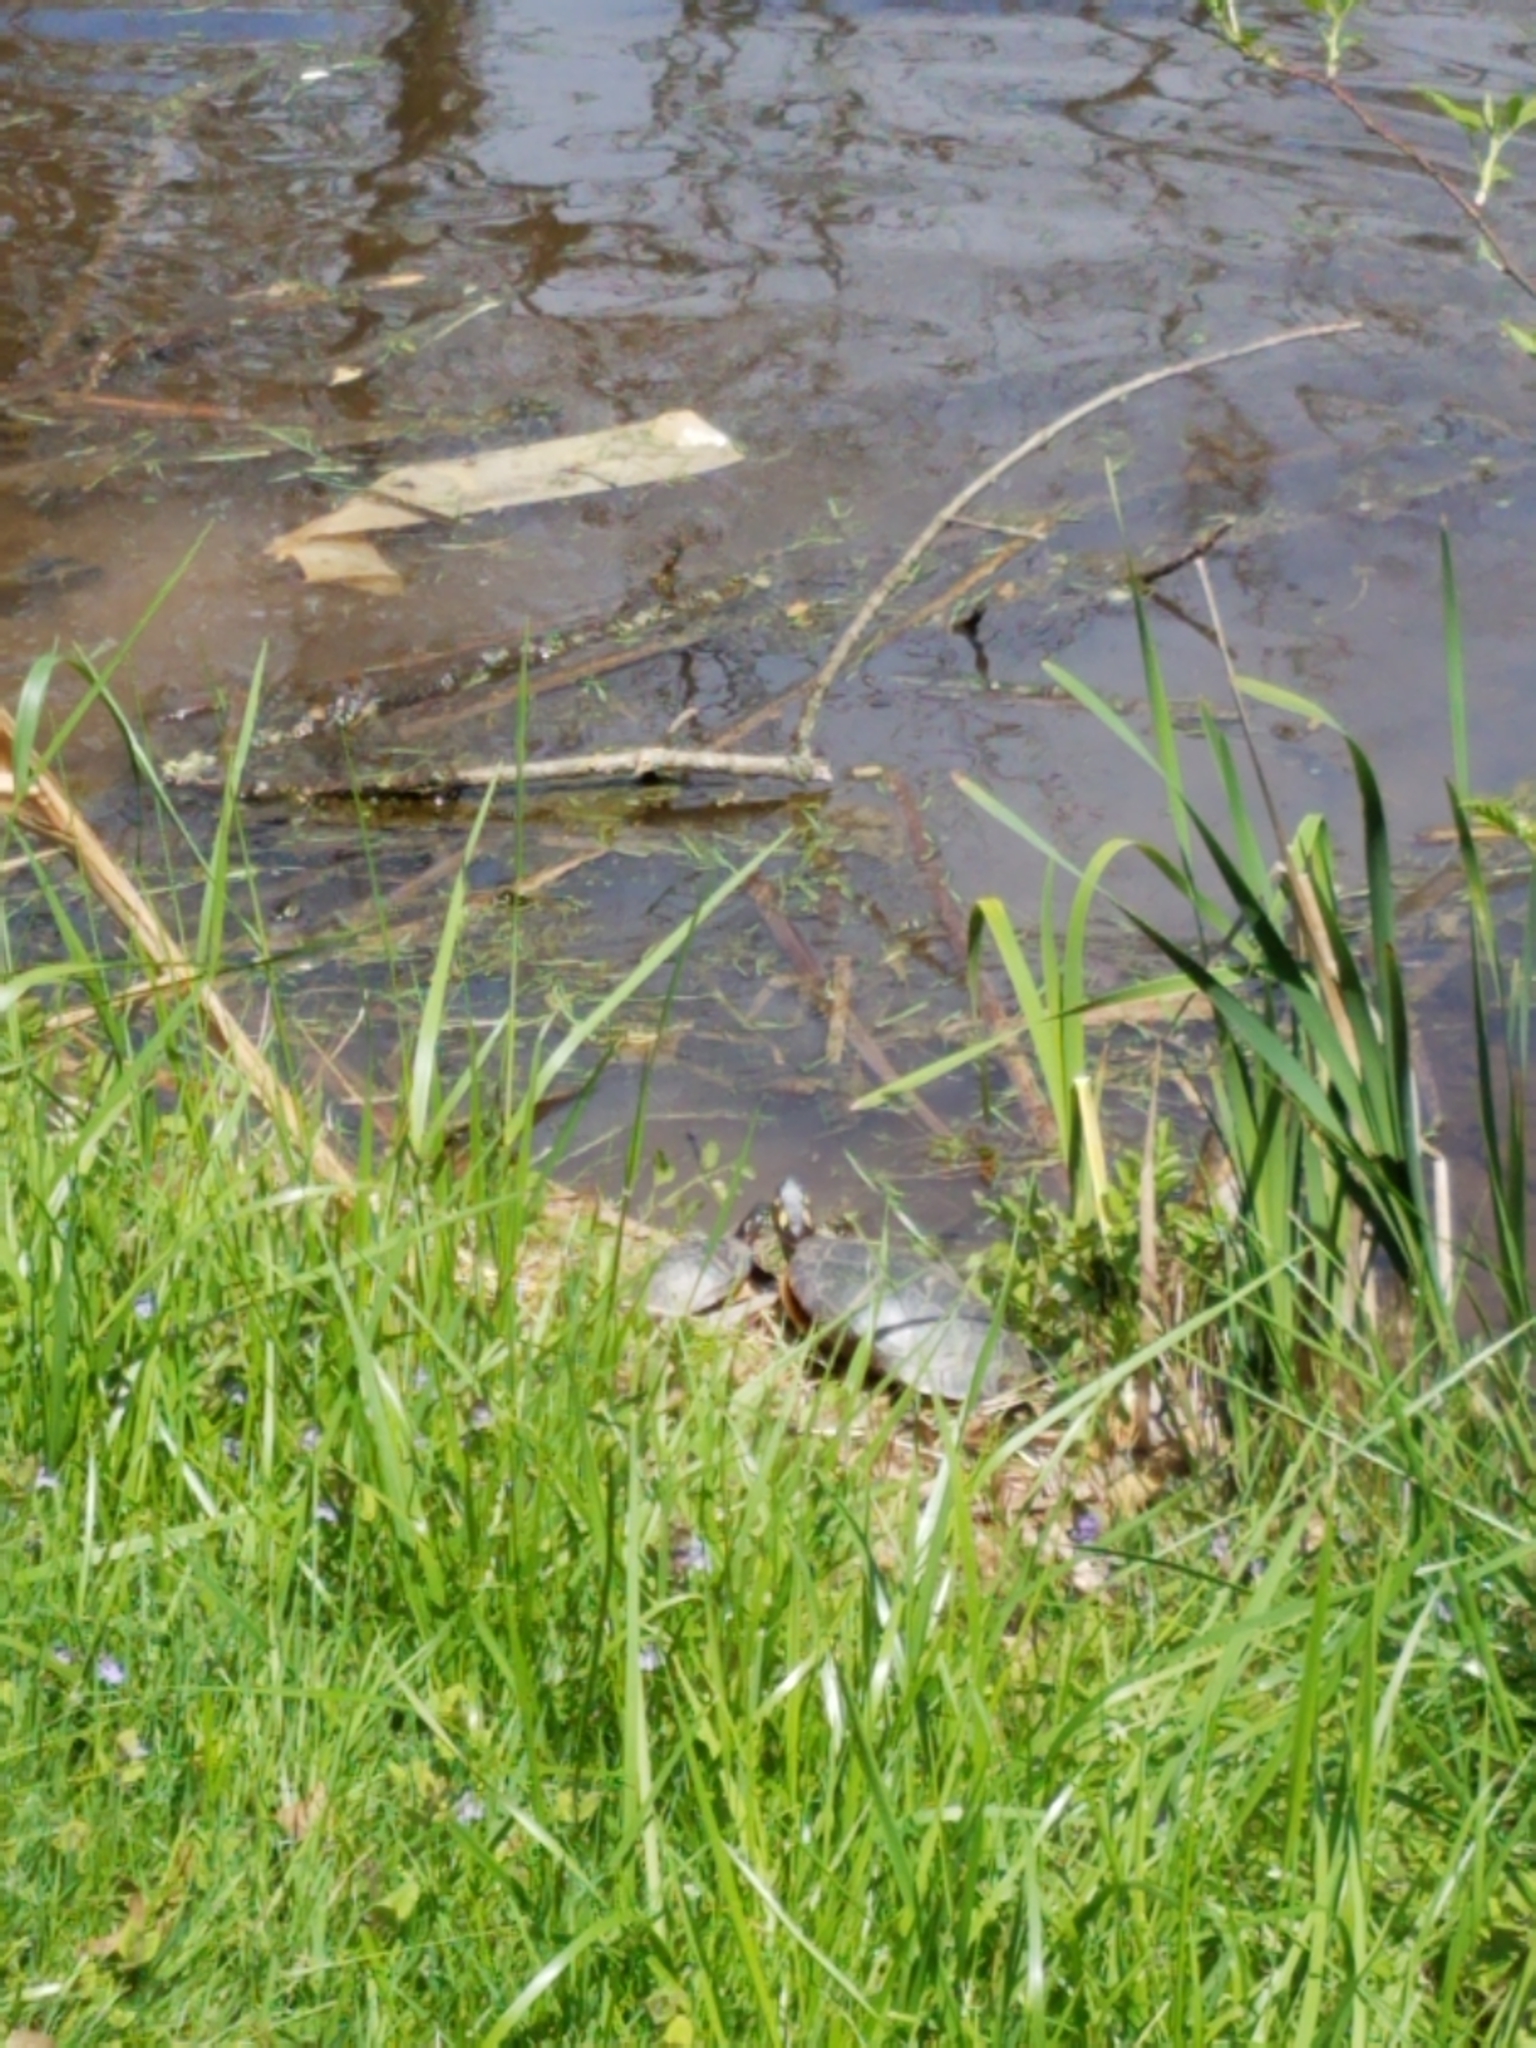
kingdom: Animalia
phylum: Chordata
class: Testudines
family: Emydidae
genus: Chrysemys
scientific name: Chrysemys picta
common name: Painted turtle
